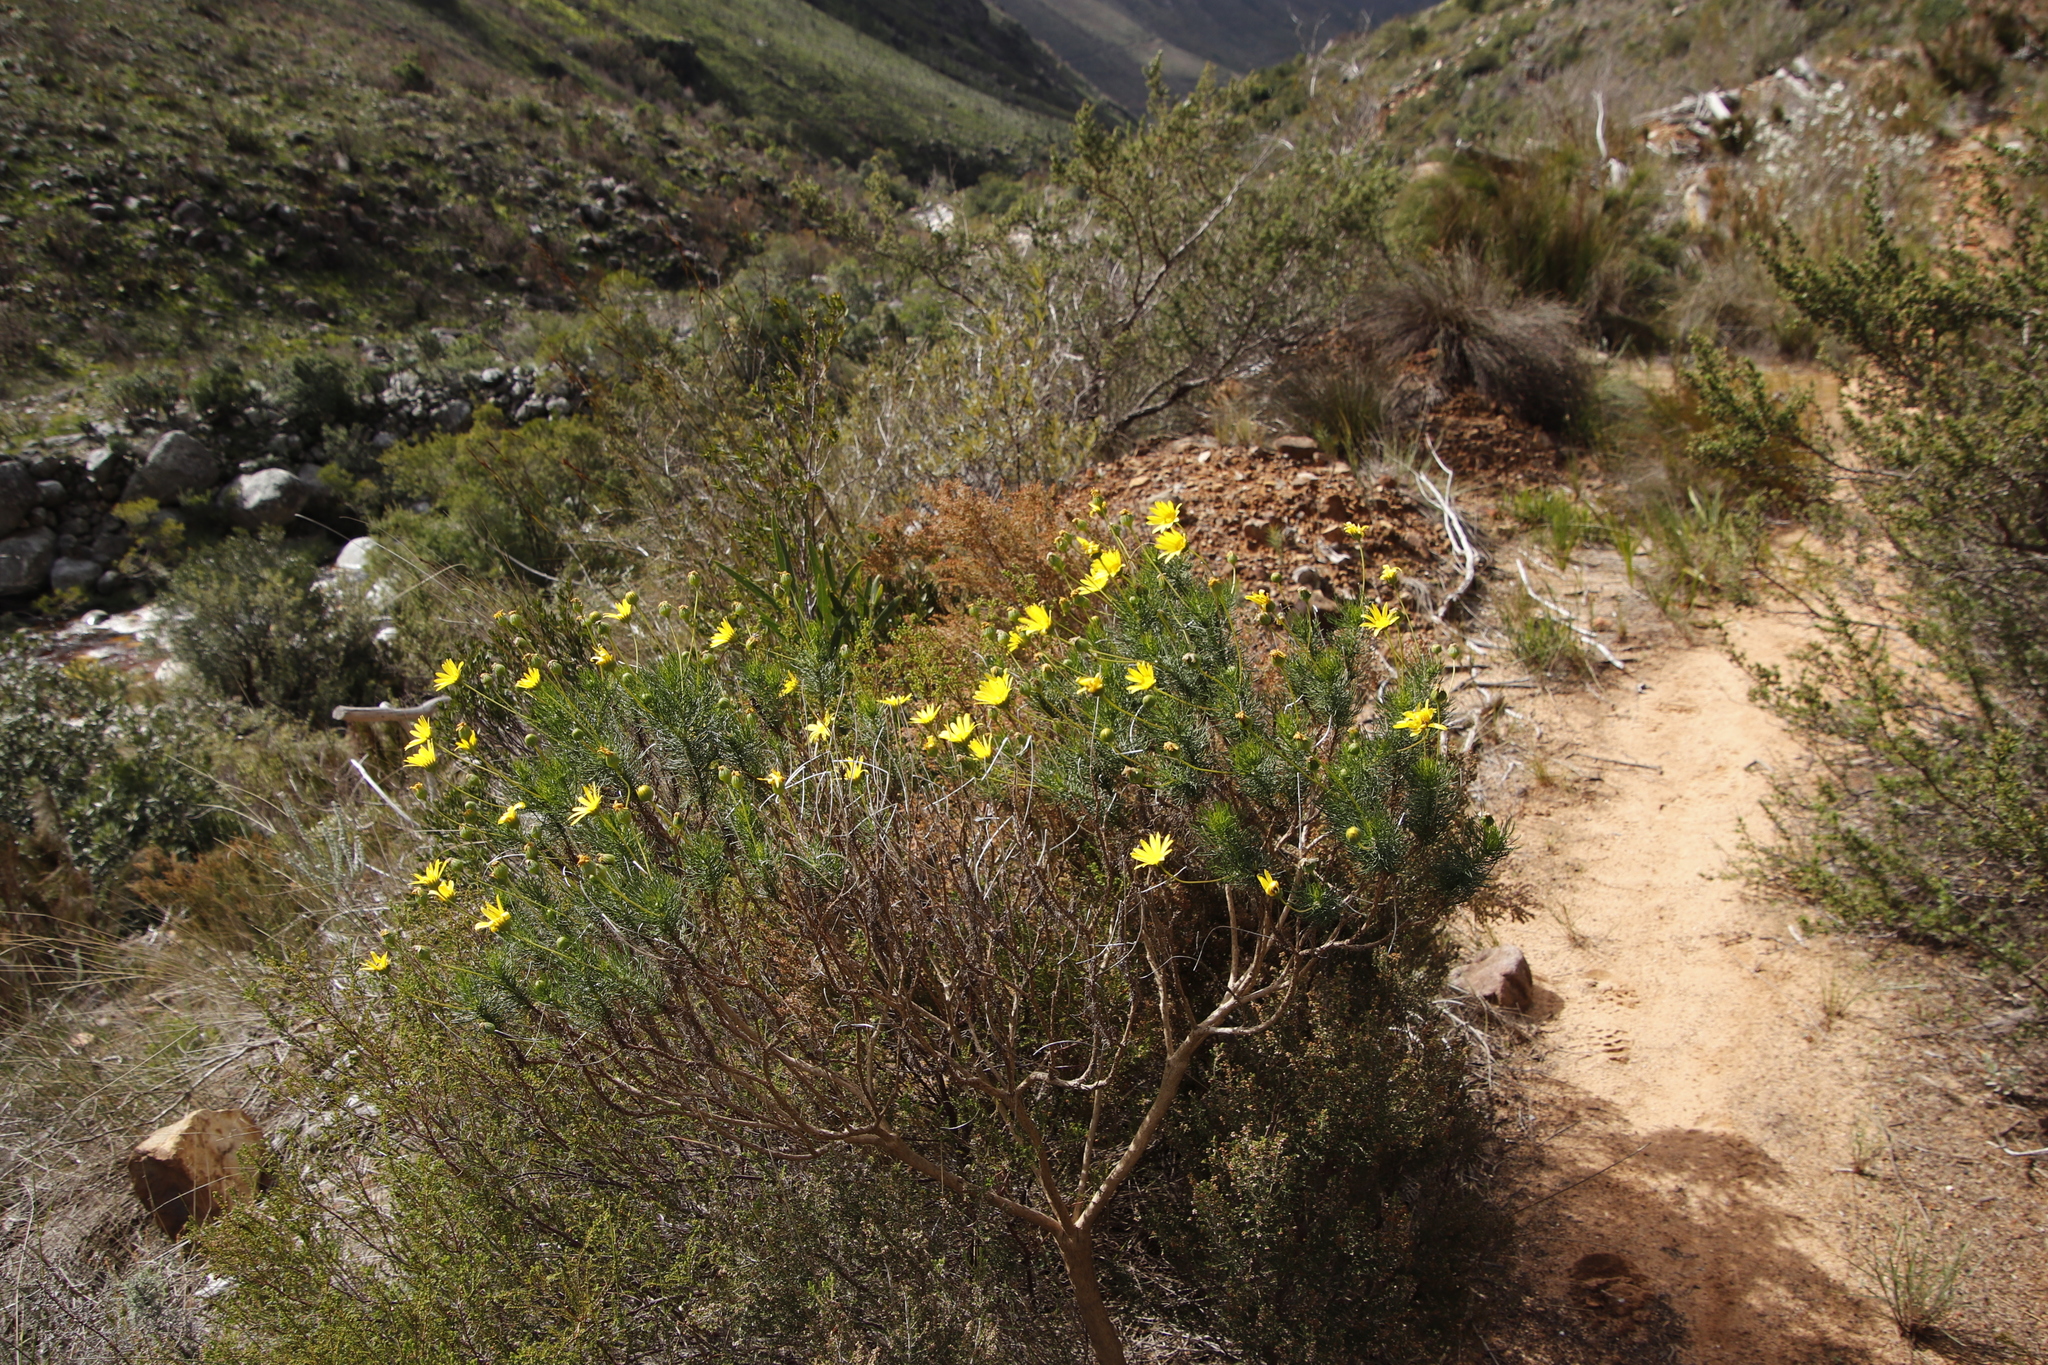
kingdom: Plantae
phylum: Tracheophyta
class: Magnoliopsida
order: Asterales
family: Asteraceae
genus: Euryops
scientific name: Euryops abrotanifolius
